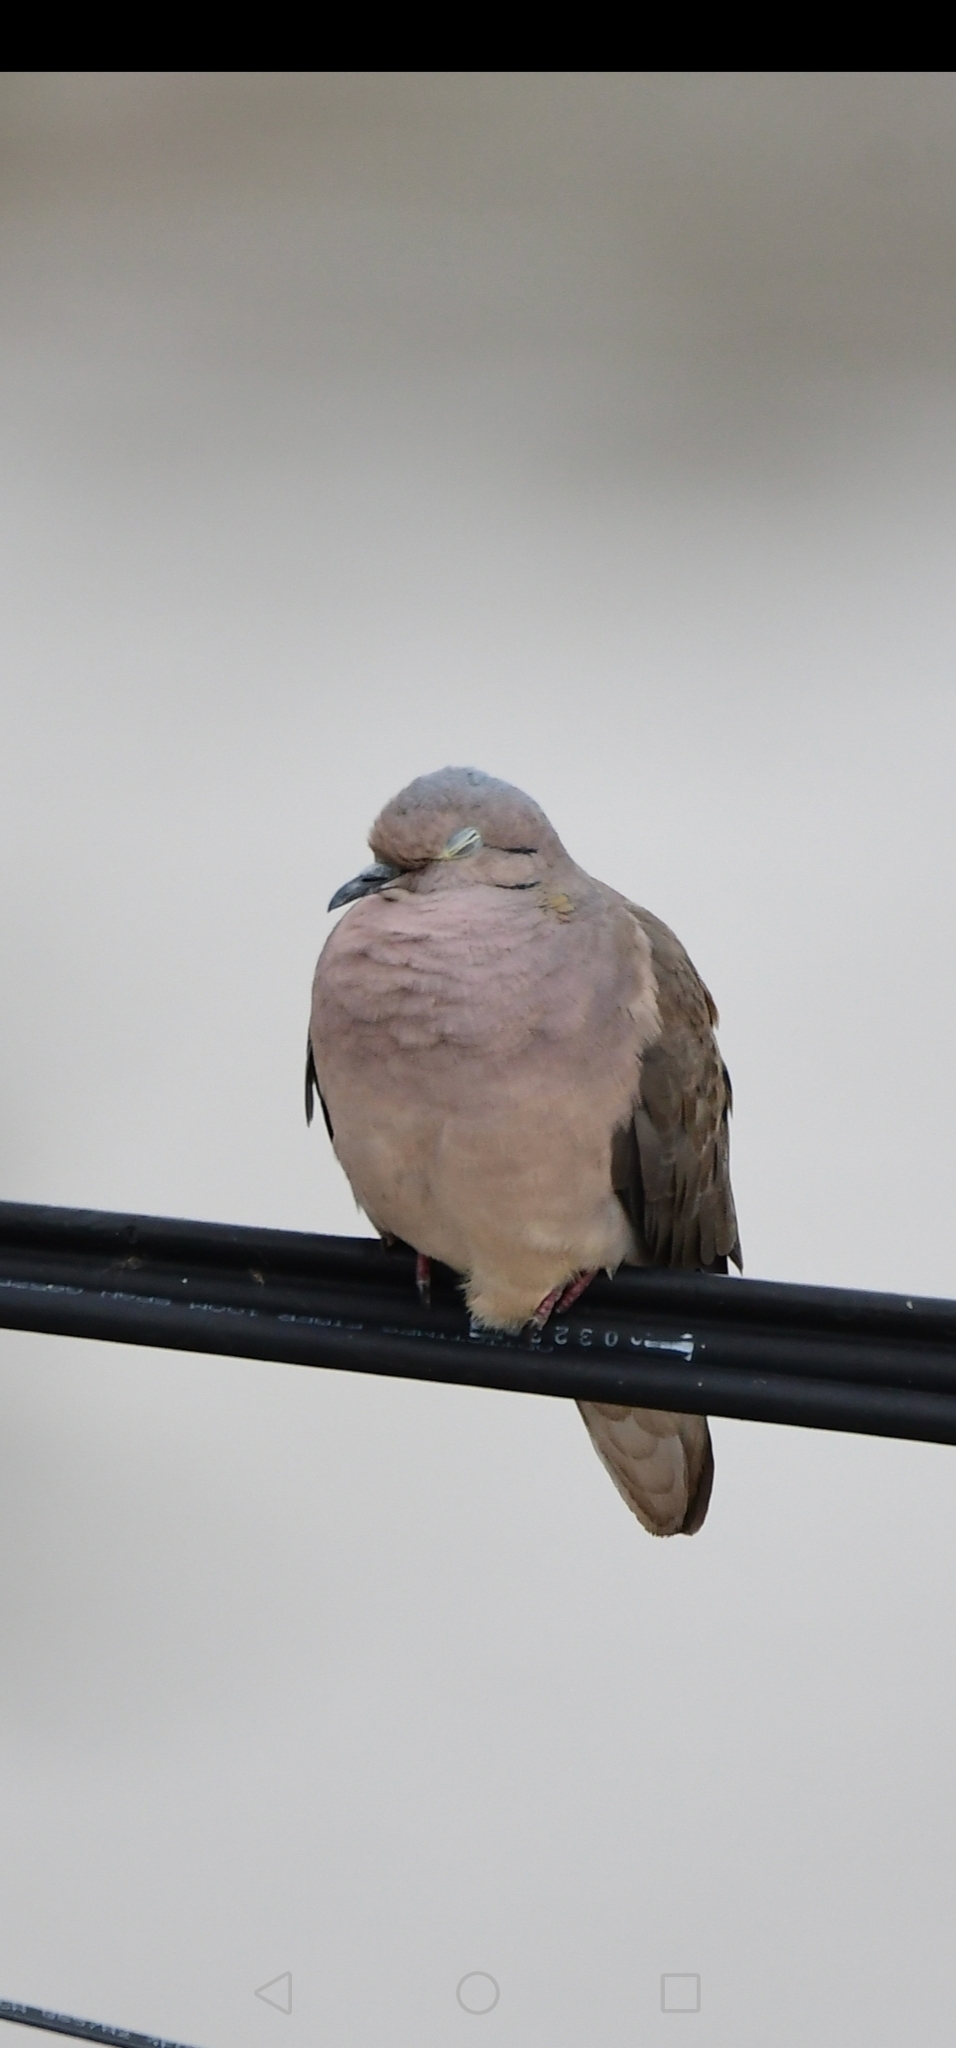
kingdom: Animalia
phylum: Chordata
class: Aves
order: Columbiformes
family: Columbidae
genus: Zenaida
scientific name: Zenaida auriculata
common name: Eared dove
